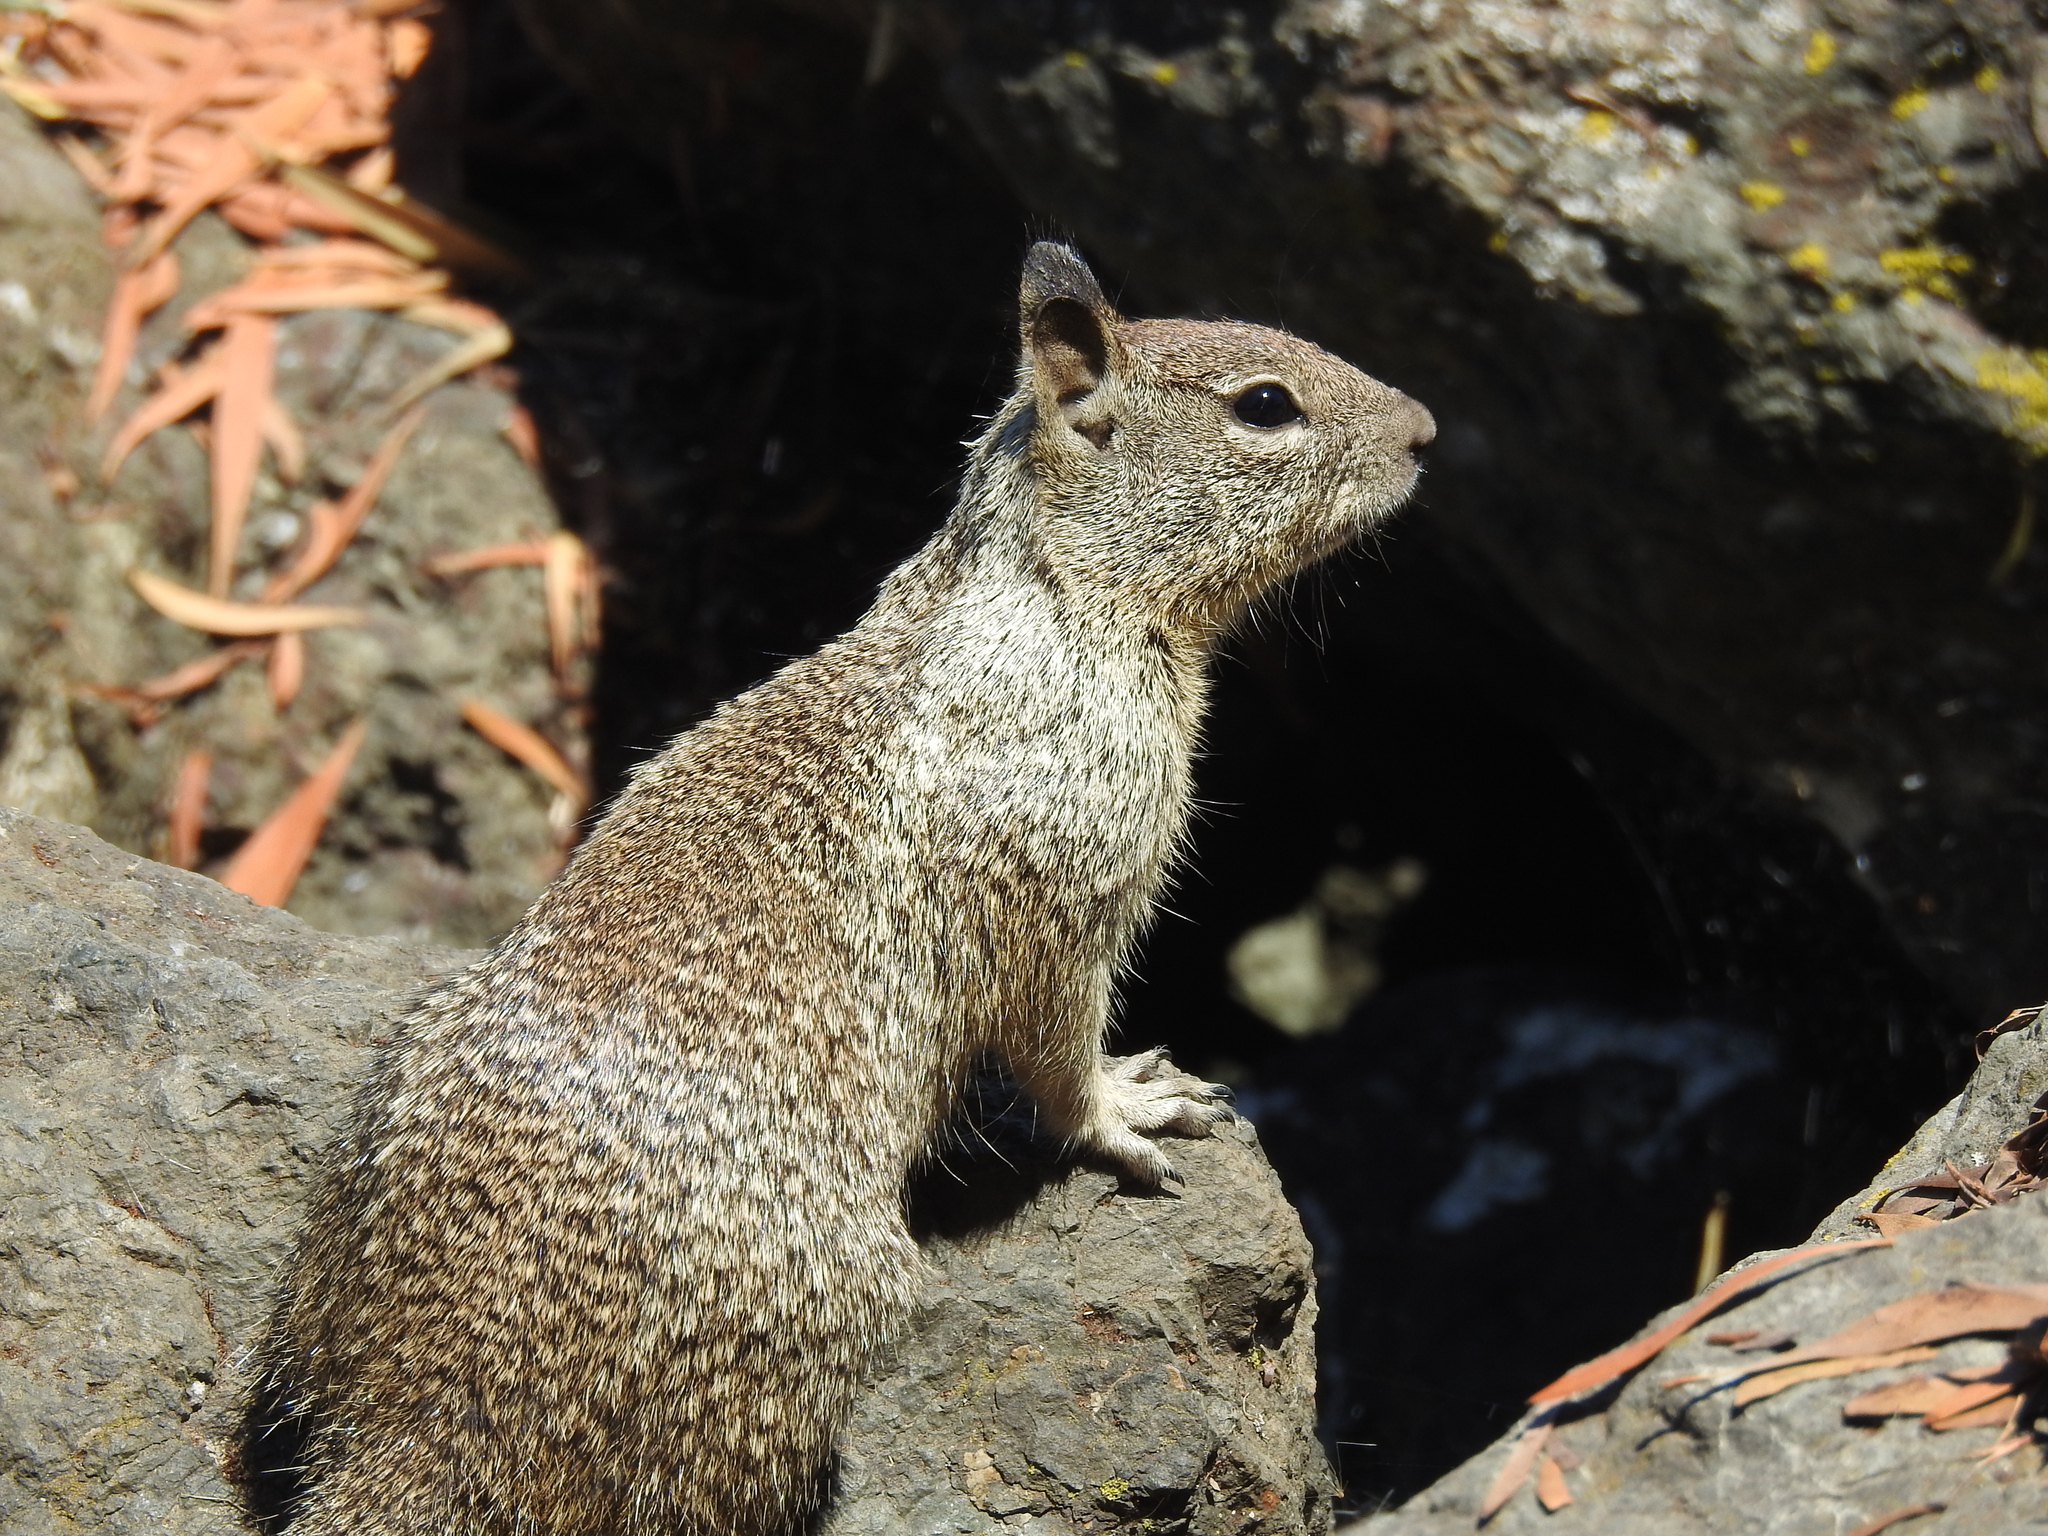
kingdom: Animalia
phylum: Chordata
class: Mammalia
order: Rodentia
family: Sciuridae
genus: Otospermophilus
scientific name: Otospermophilus beecheyi
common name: California ground squirrel
